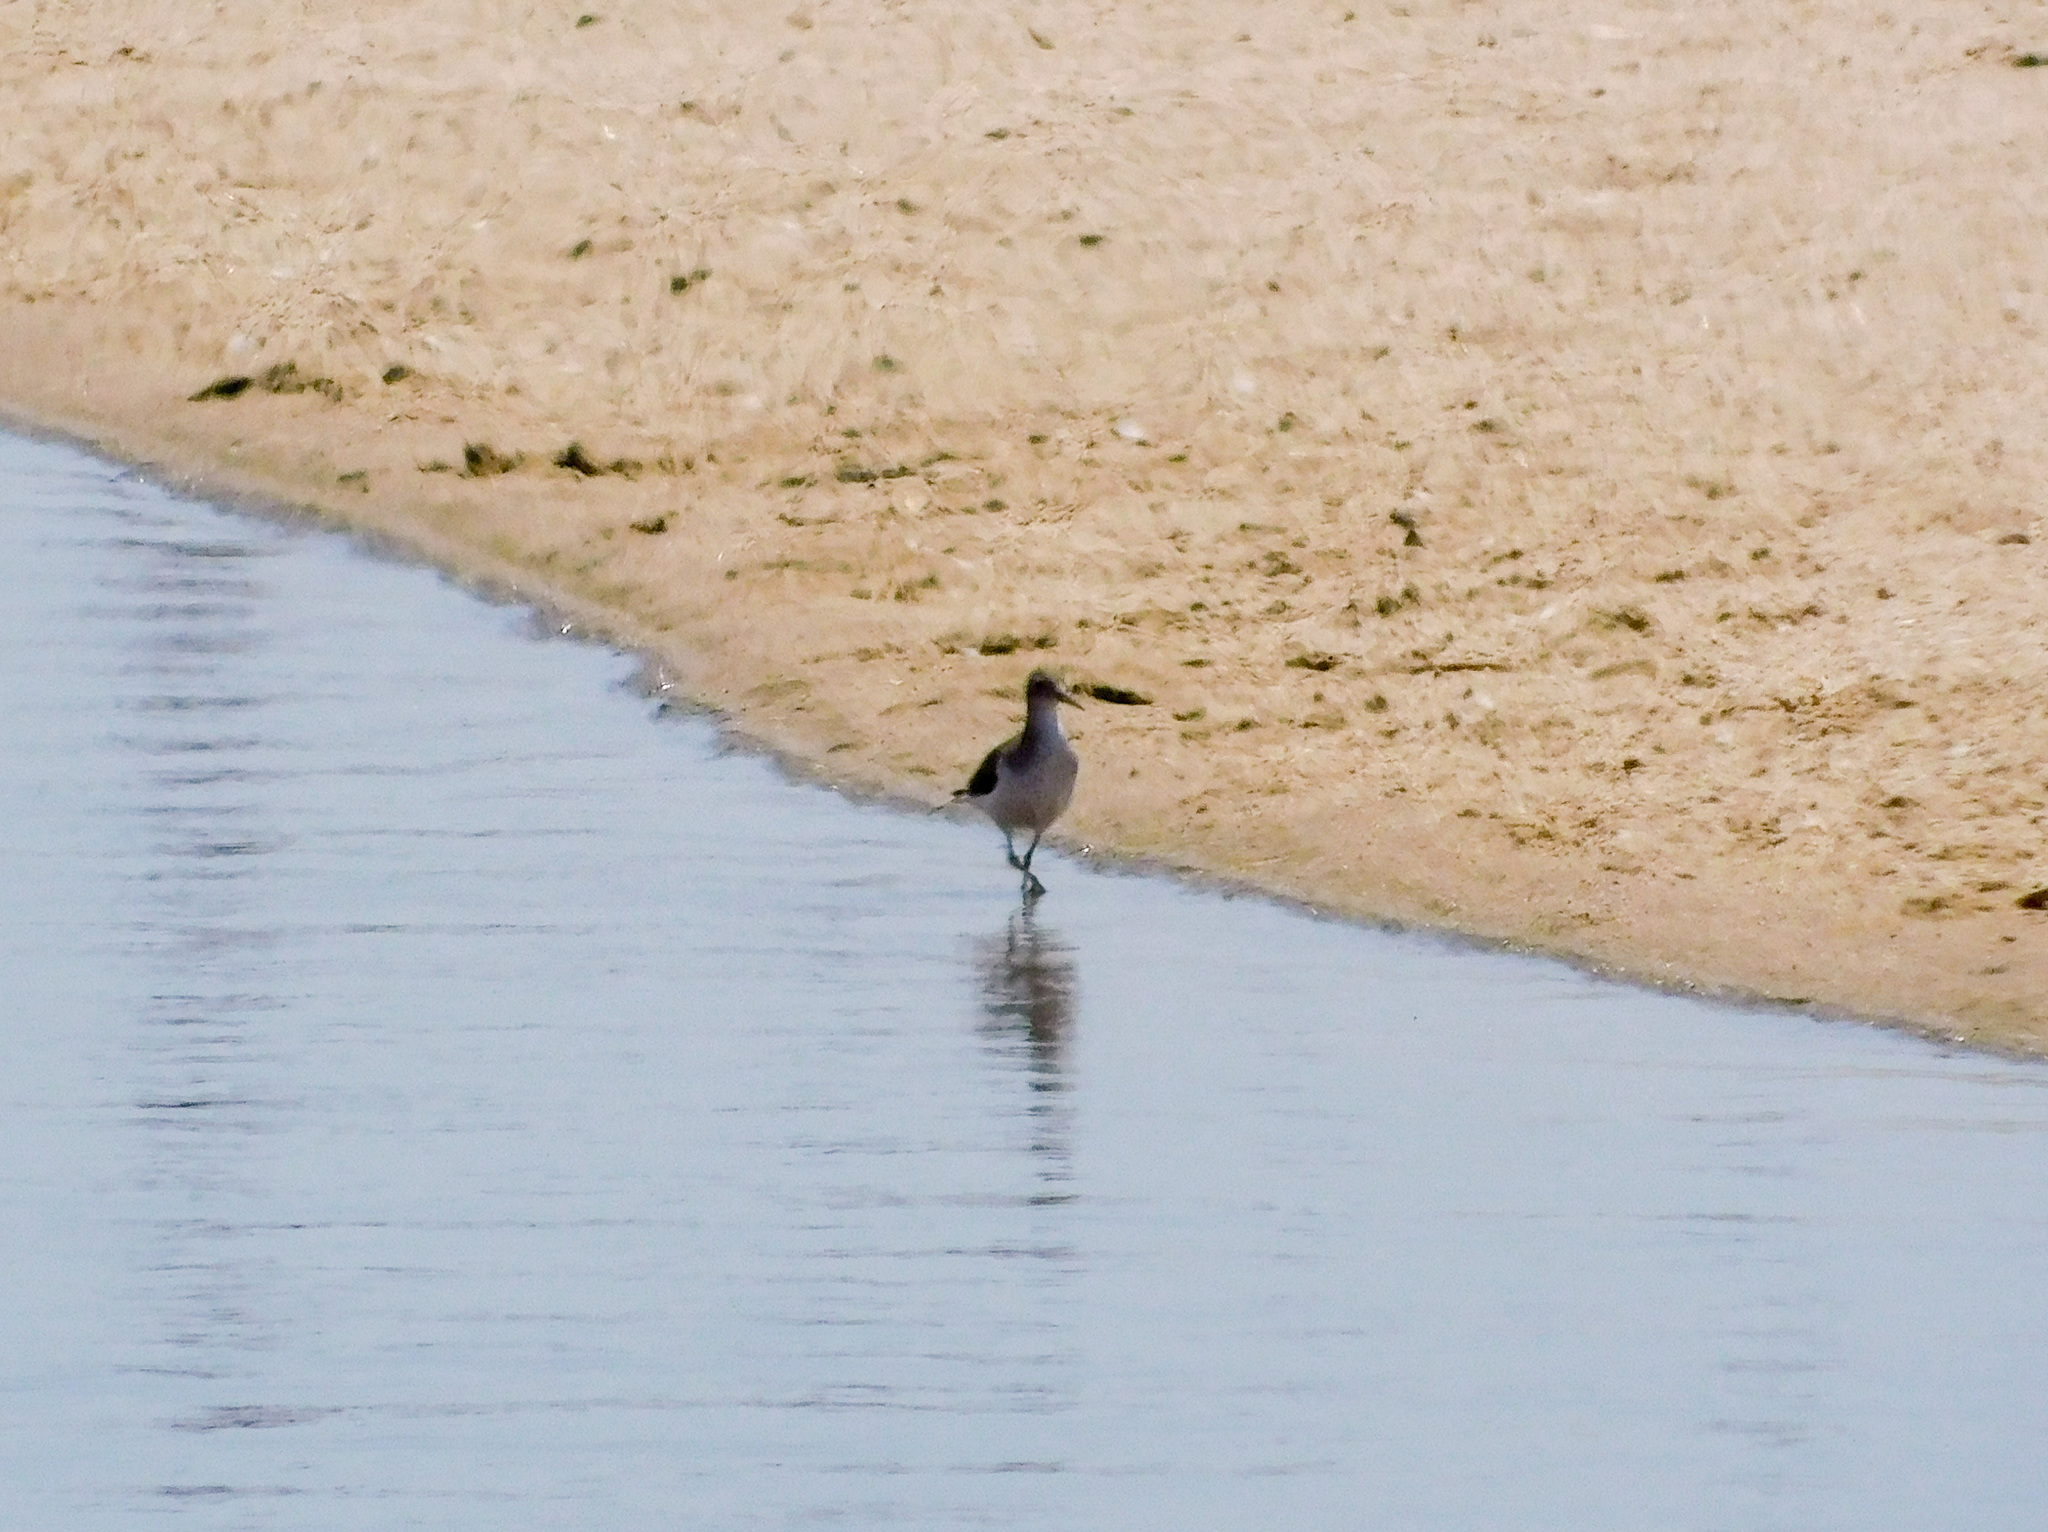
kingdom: Animalia
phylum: Chordata
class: Aves
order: Charadriiformes
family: Scolopacidae
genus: Actitis
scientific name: Actitis macularius
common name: Spotted sandpiper
